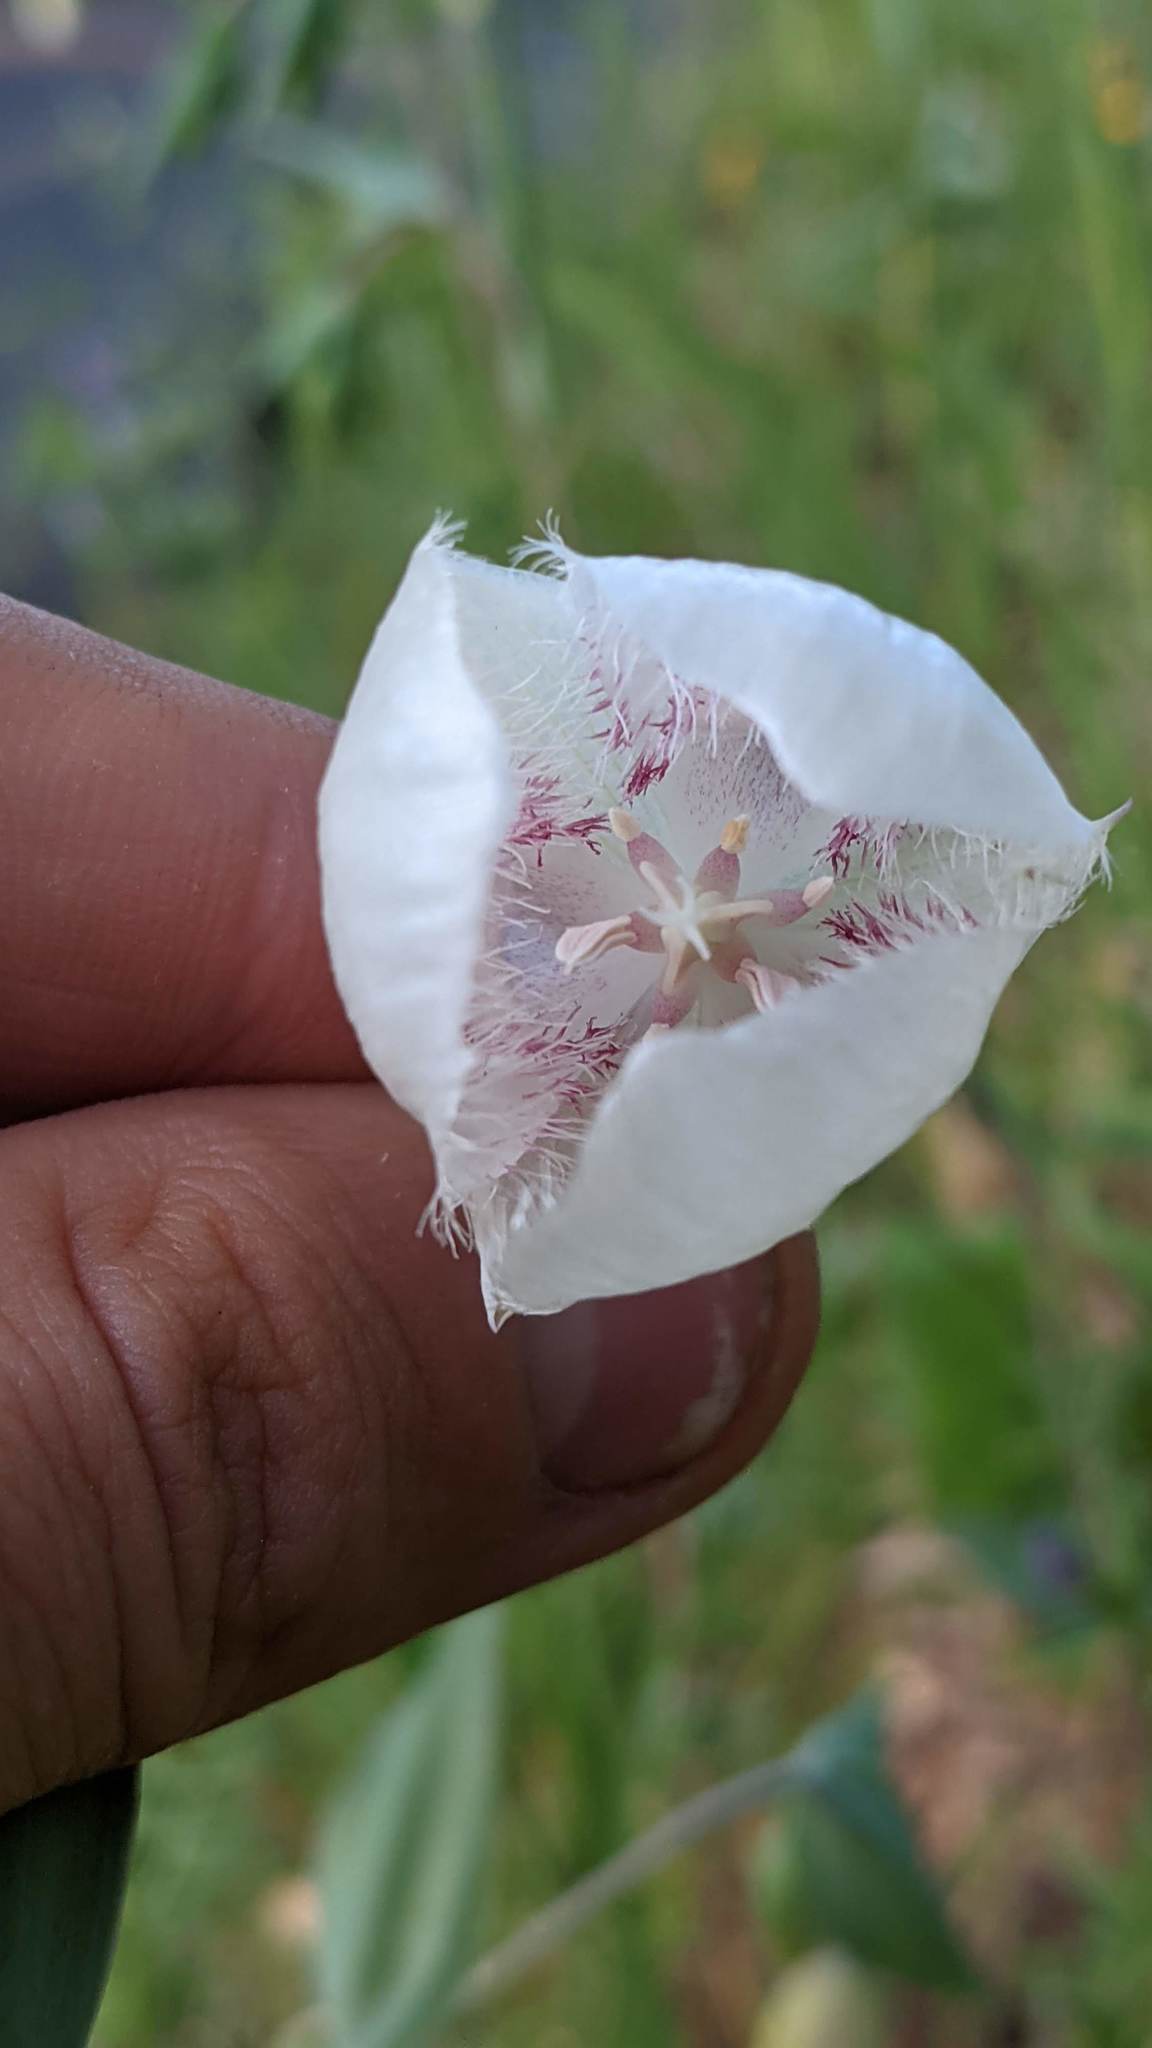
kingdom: Plantae
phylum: Tracheophyta
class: Liliopsida
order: Liliales
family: Liliaceae
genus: Calochortus
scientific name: Calochortus albus
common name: Fairy-lantern
